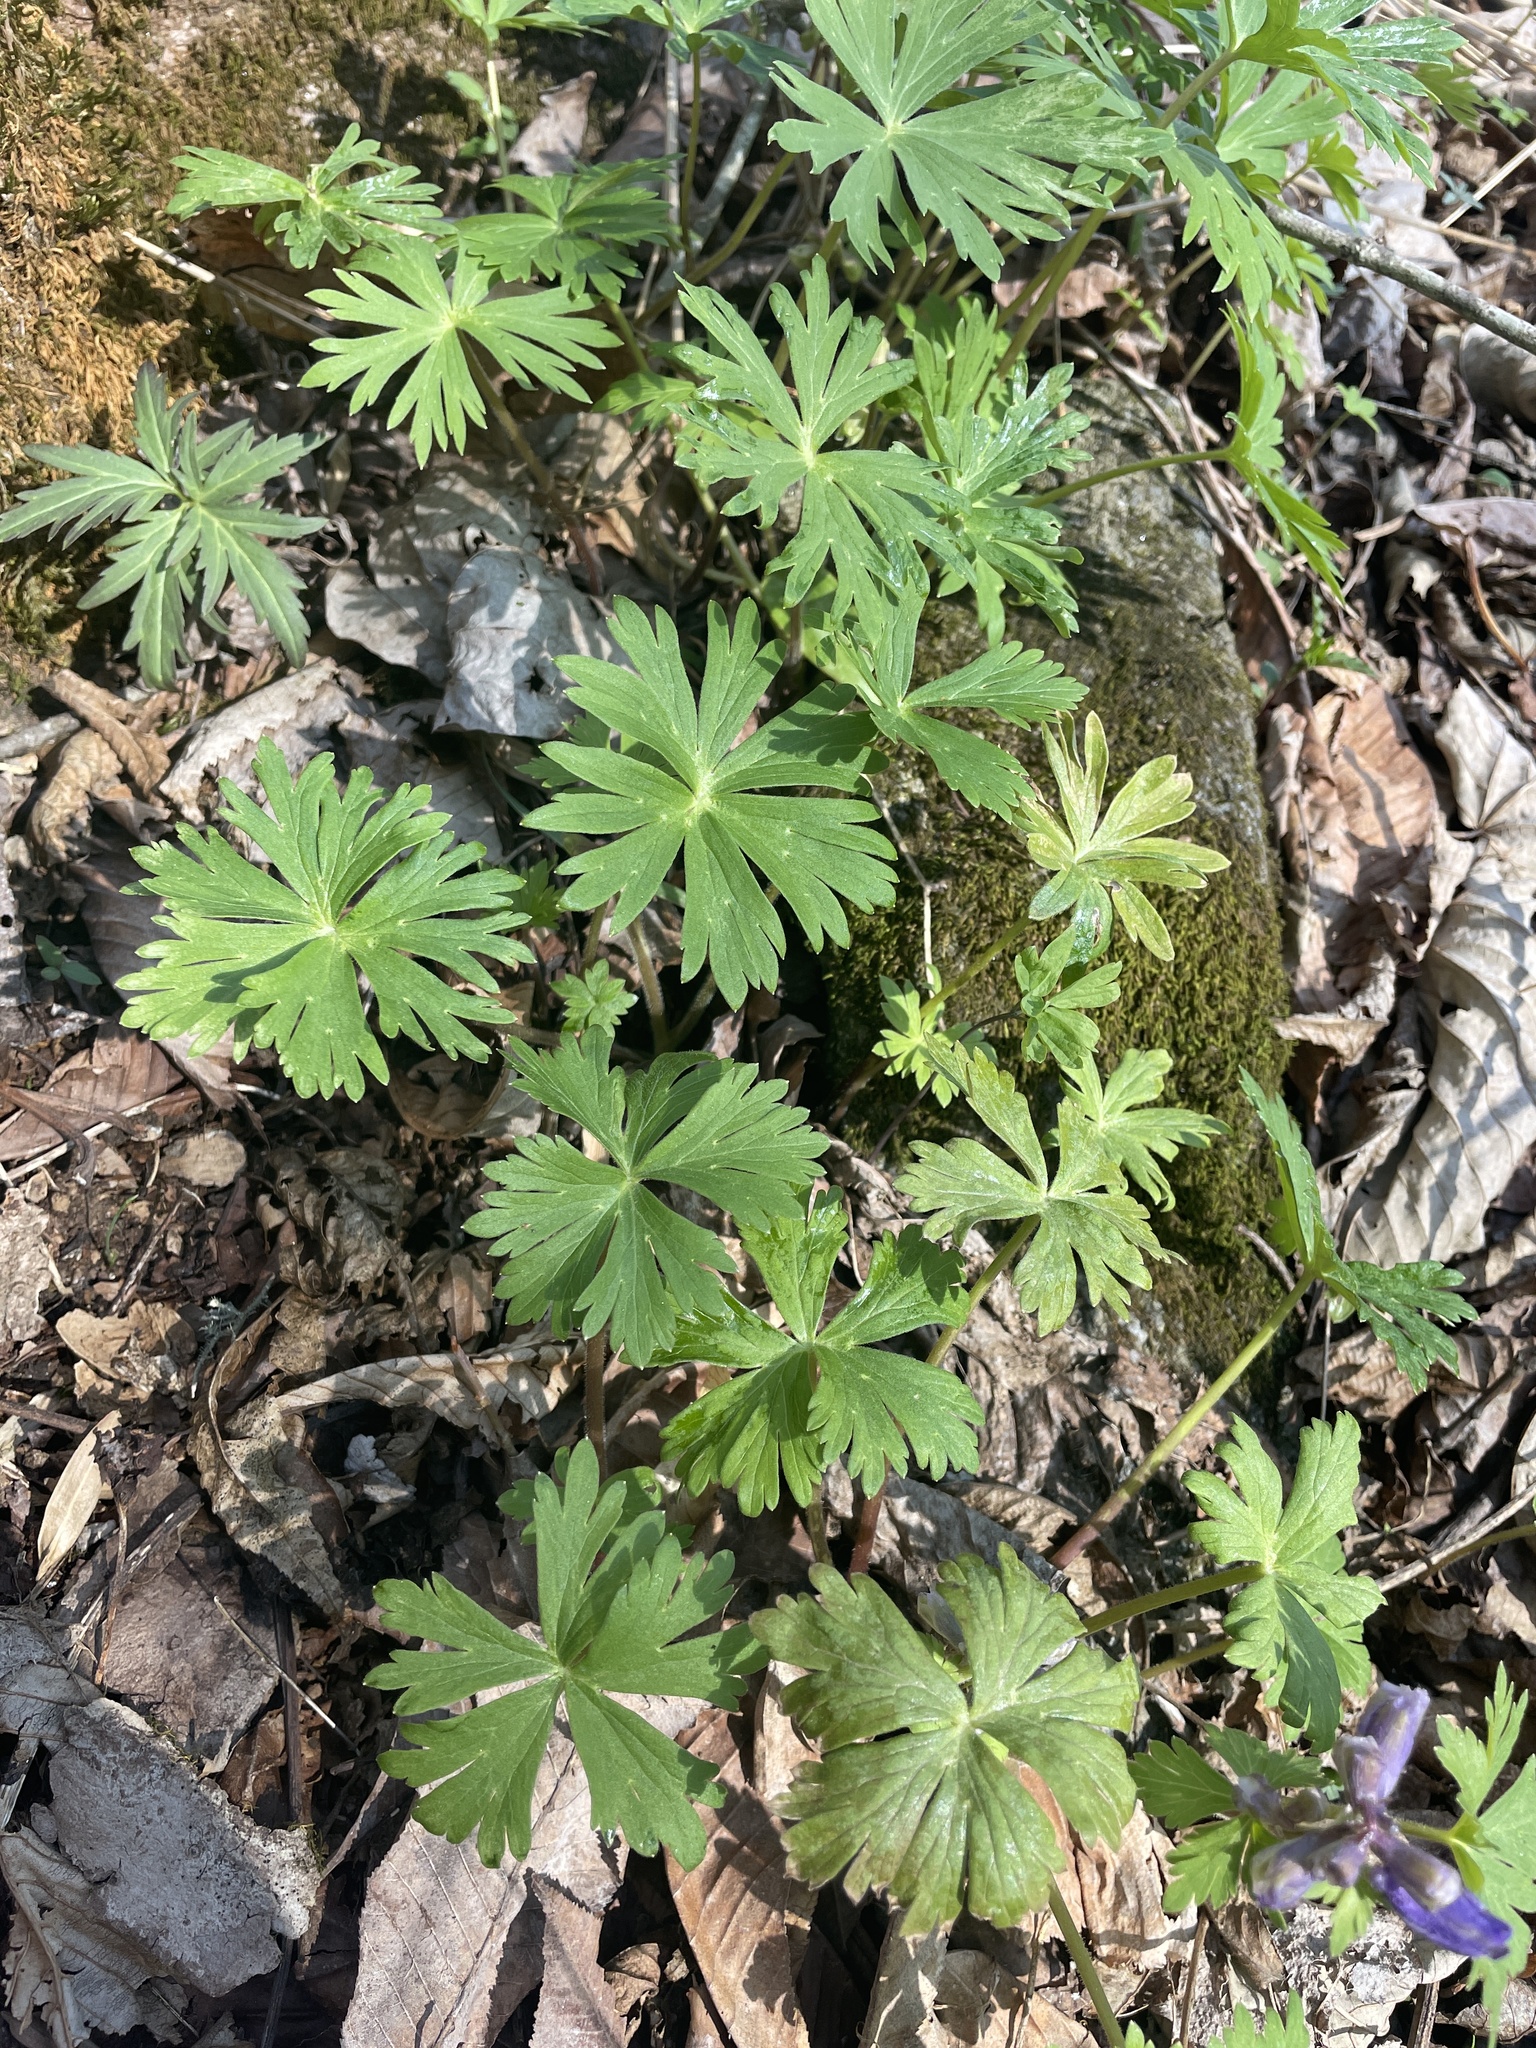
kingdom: Plantae
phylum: Tracheophyta
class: Magnoliopsida
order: Ranunculales
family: Ranunculaceae
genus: Delphinium
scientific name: Delphinium tricorne
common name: Dwarf larkspur
